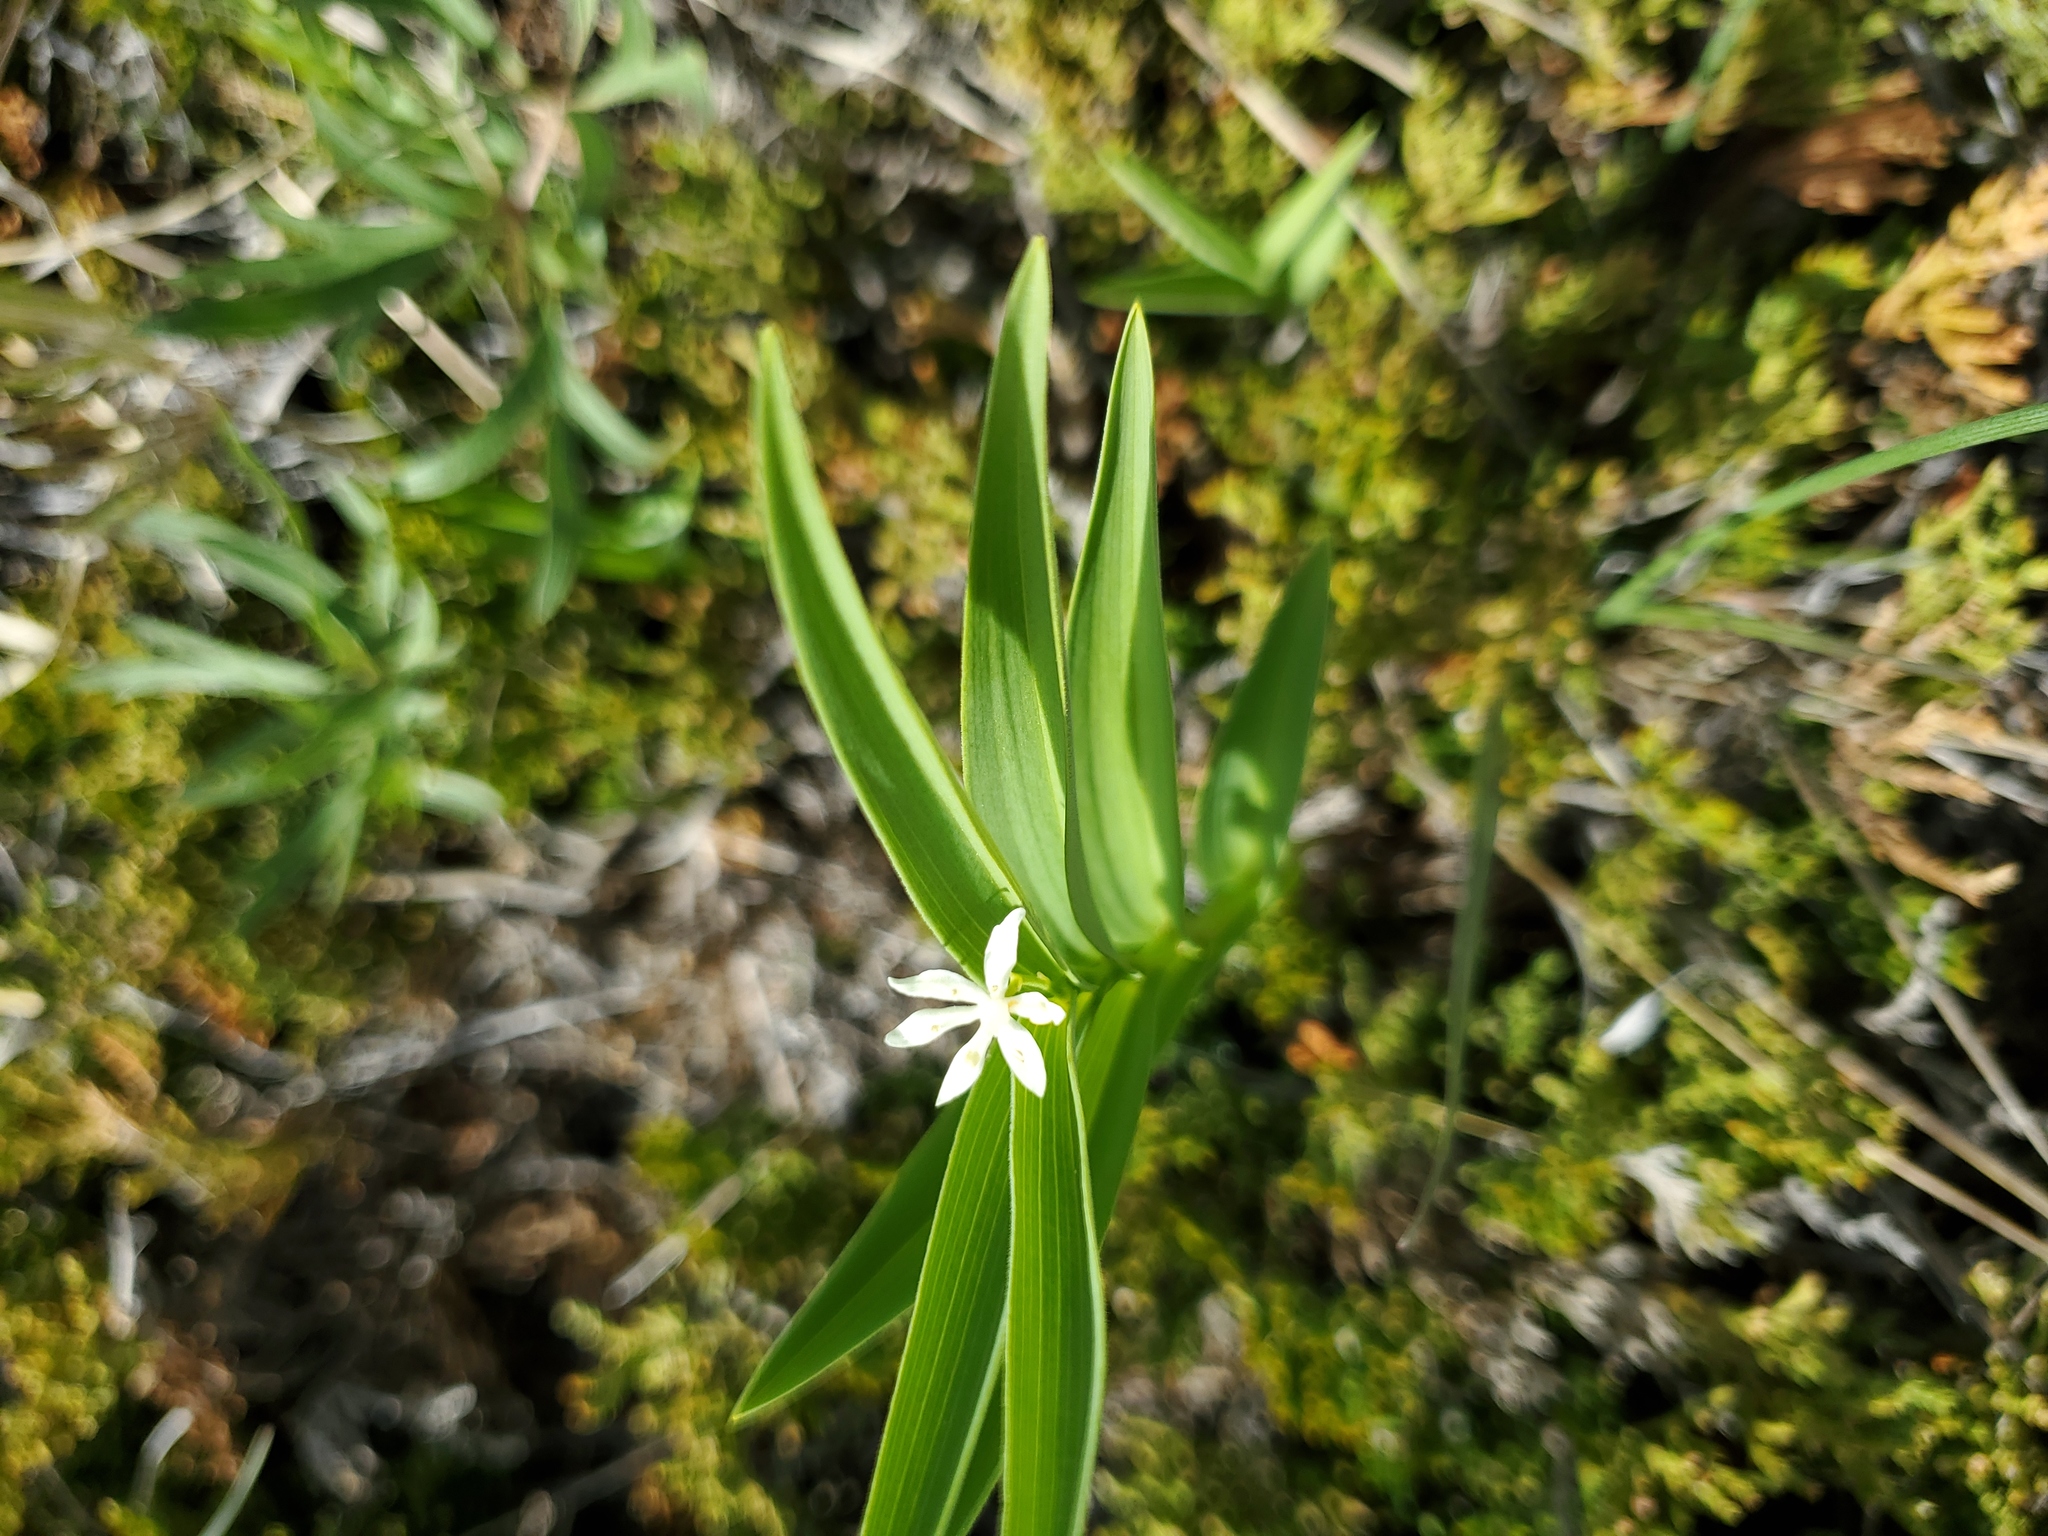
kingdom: Plantae
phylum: Tracheophyta
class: Liliopsida
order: Asparagales
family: Asparagaceae
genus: Maianthemum
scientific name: Maianthemum stellatum
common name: Little false solomon's seal
